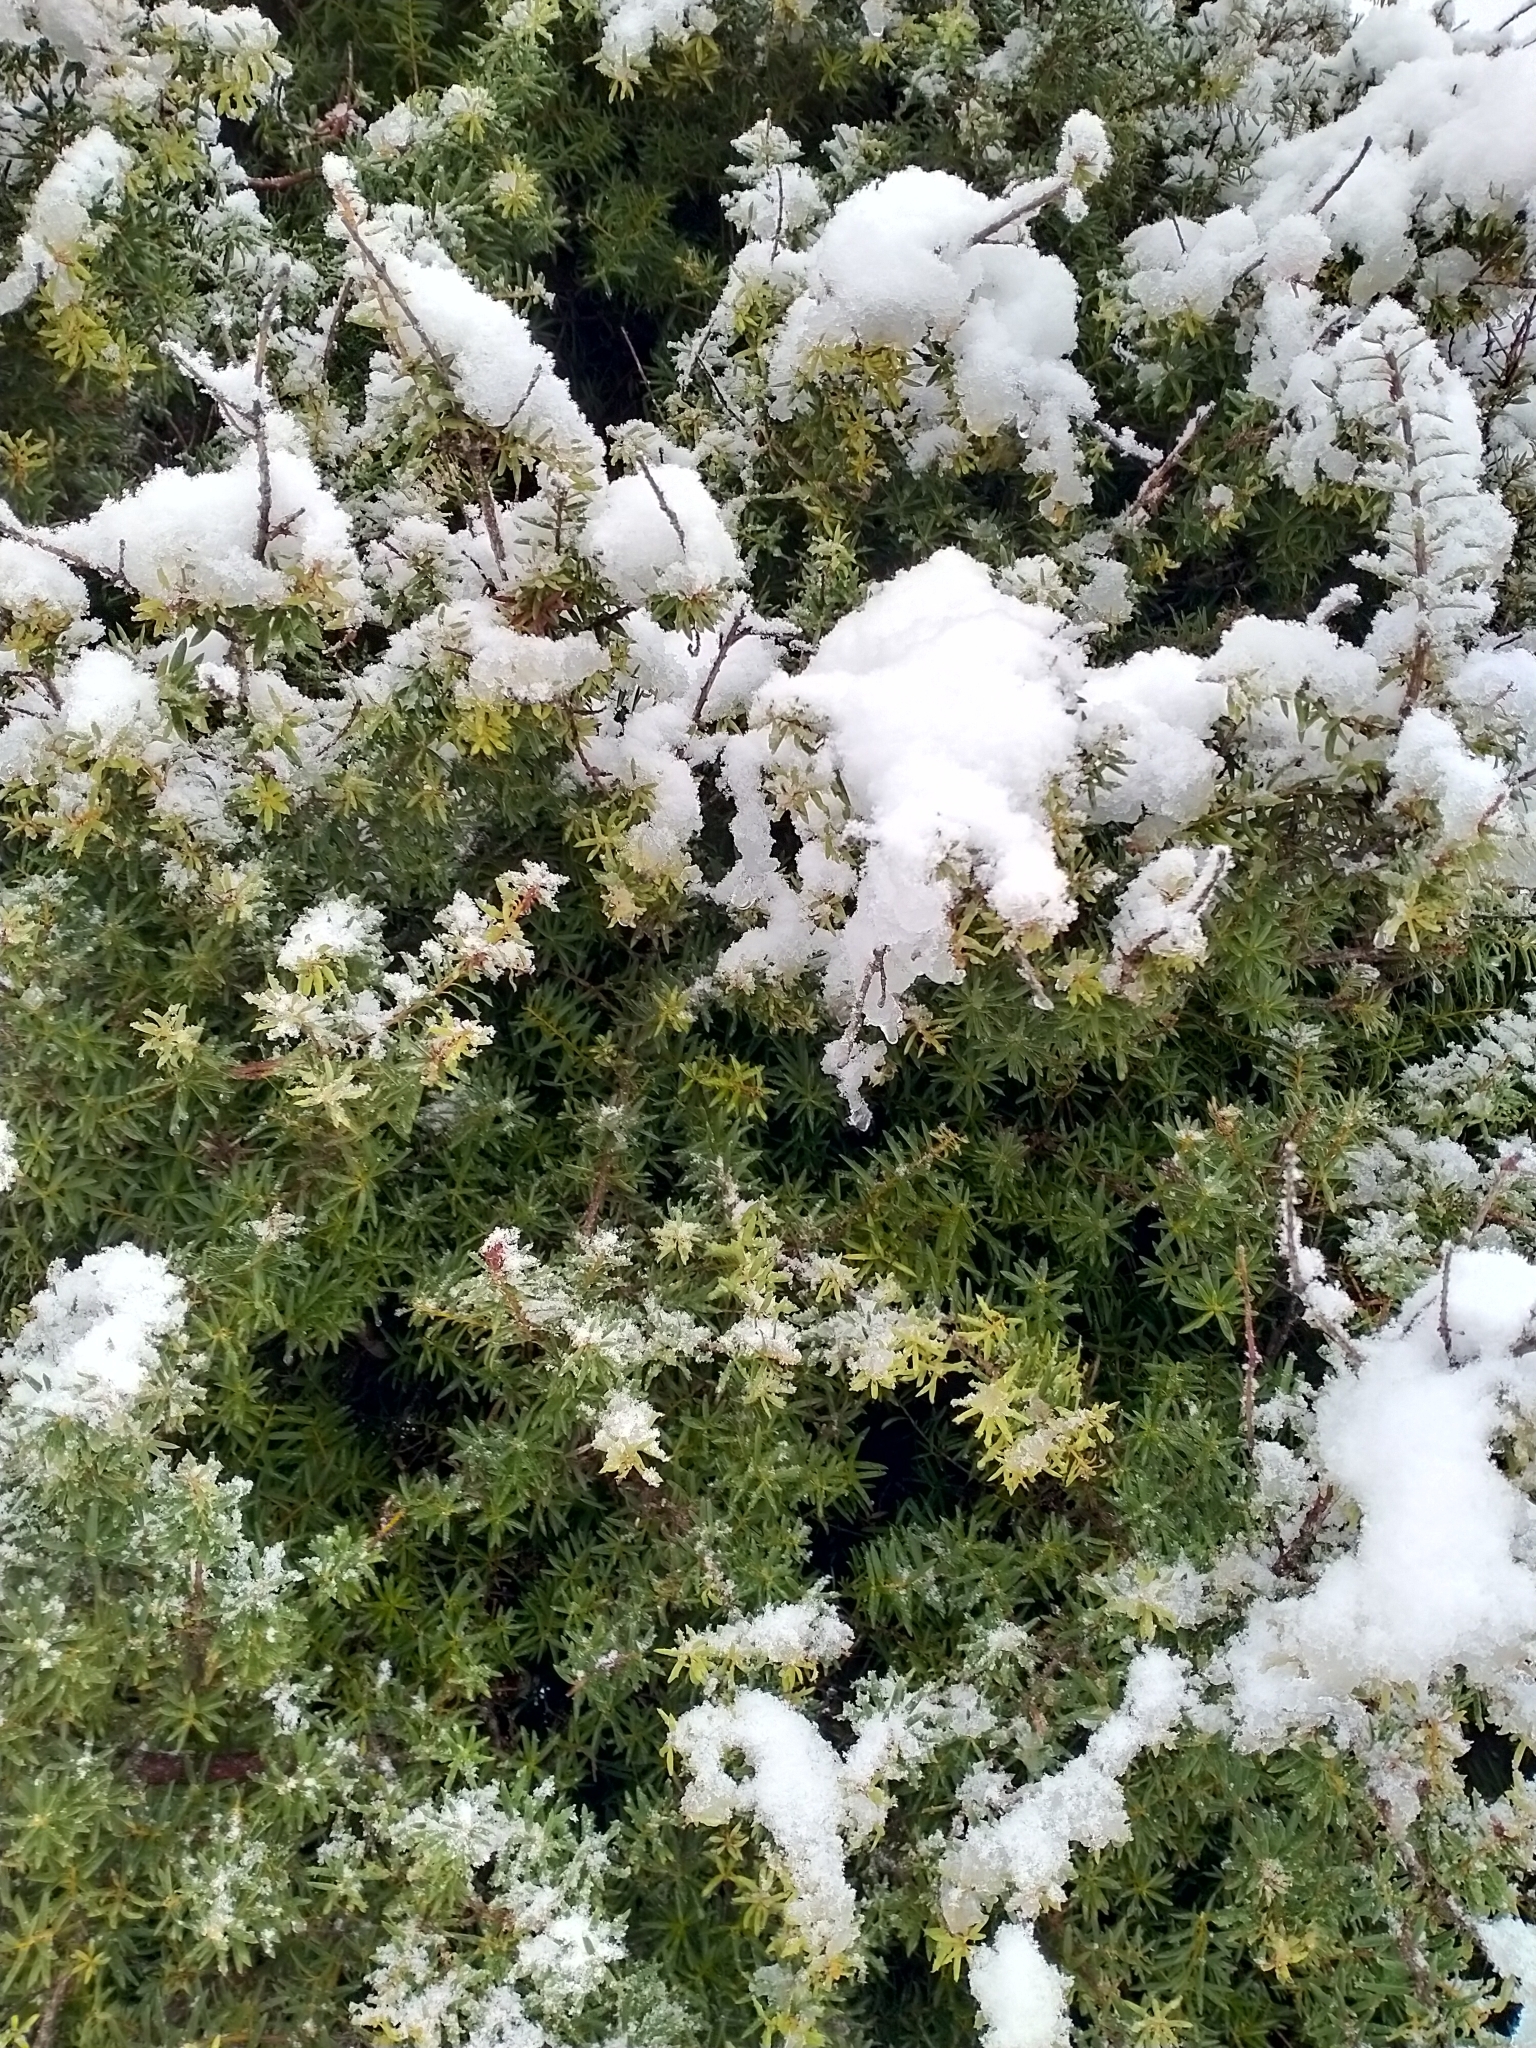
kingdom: Plantae
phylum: Tracheophyta
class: Pinopsida
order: Pinales
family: Podocarpaceae
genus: Podocarpus
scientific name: Podocarpus laetus
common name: Hall's totara
